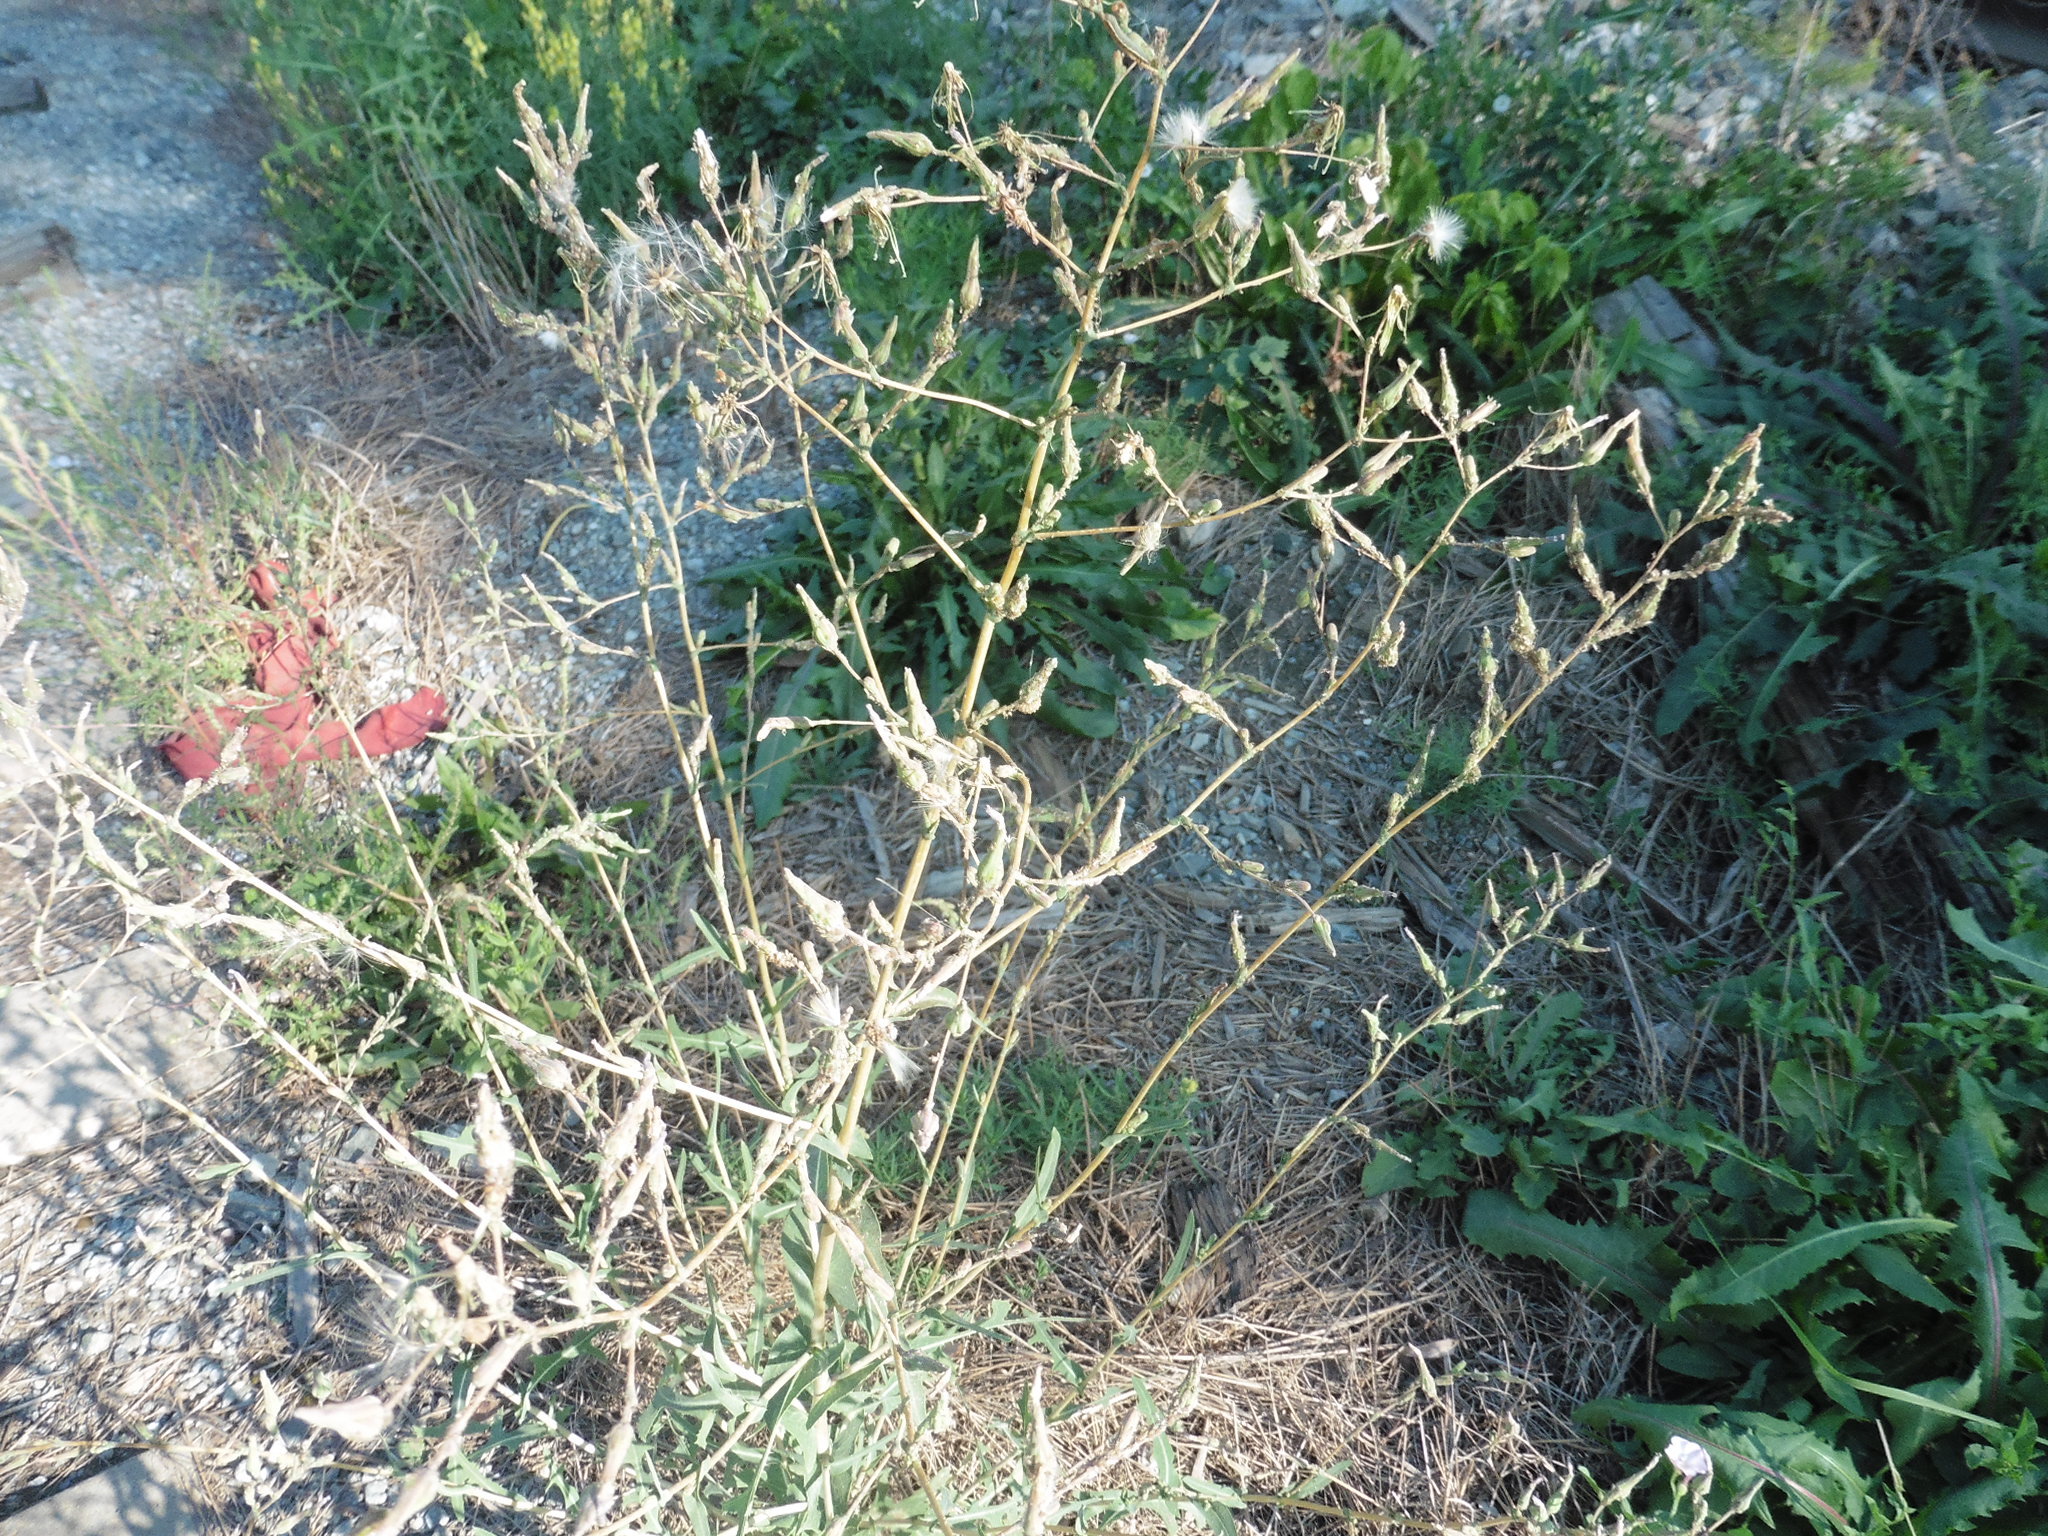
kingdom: Plantae
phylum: Tracheophyta
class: Magnoliopsida
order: Asterales
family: Asteraceae
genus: Lactuca
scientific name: Lactuca serriola
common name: Prickly lettuce
